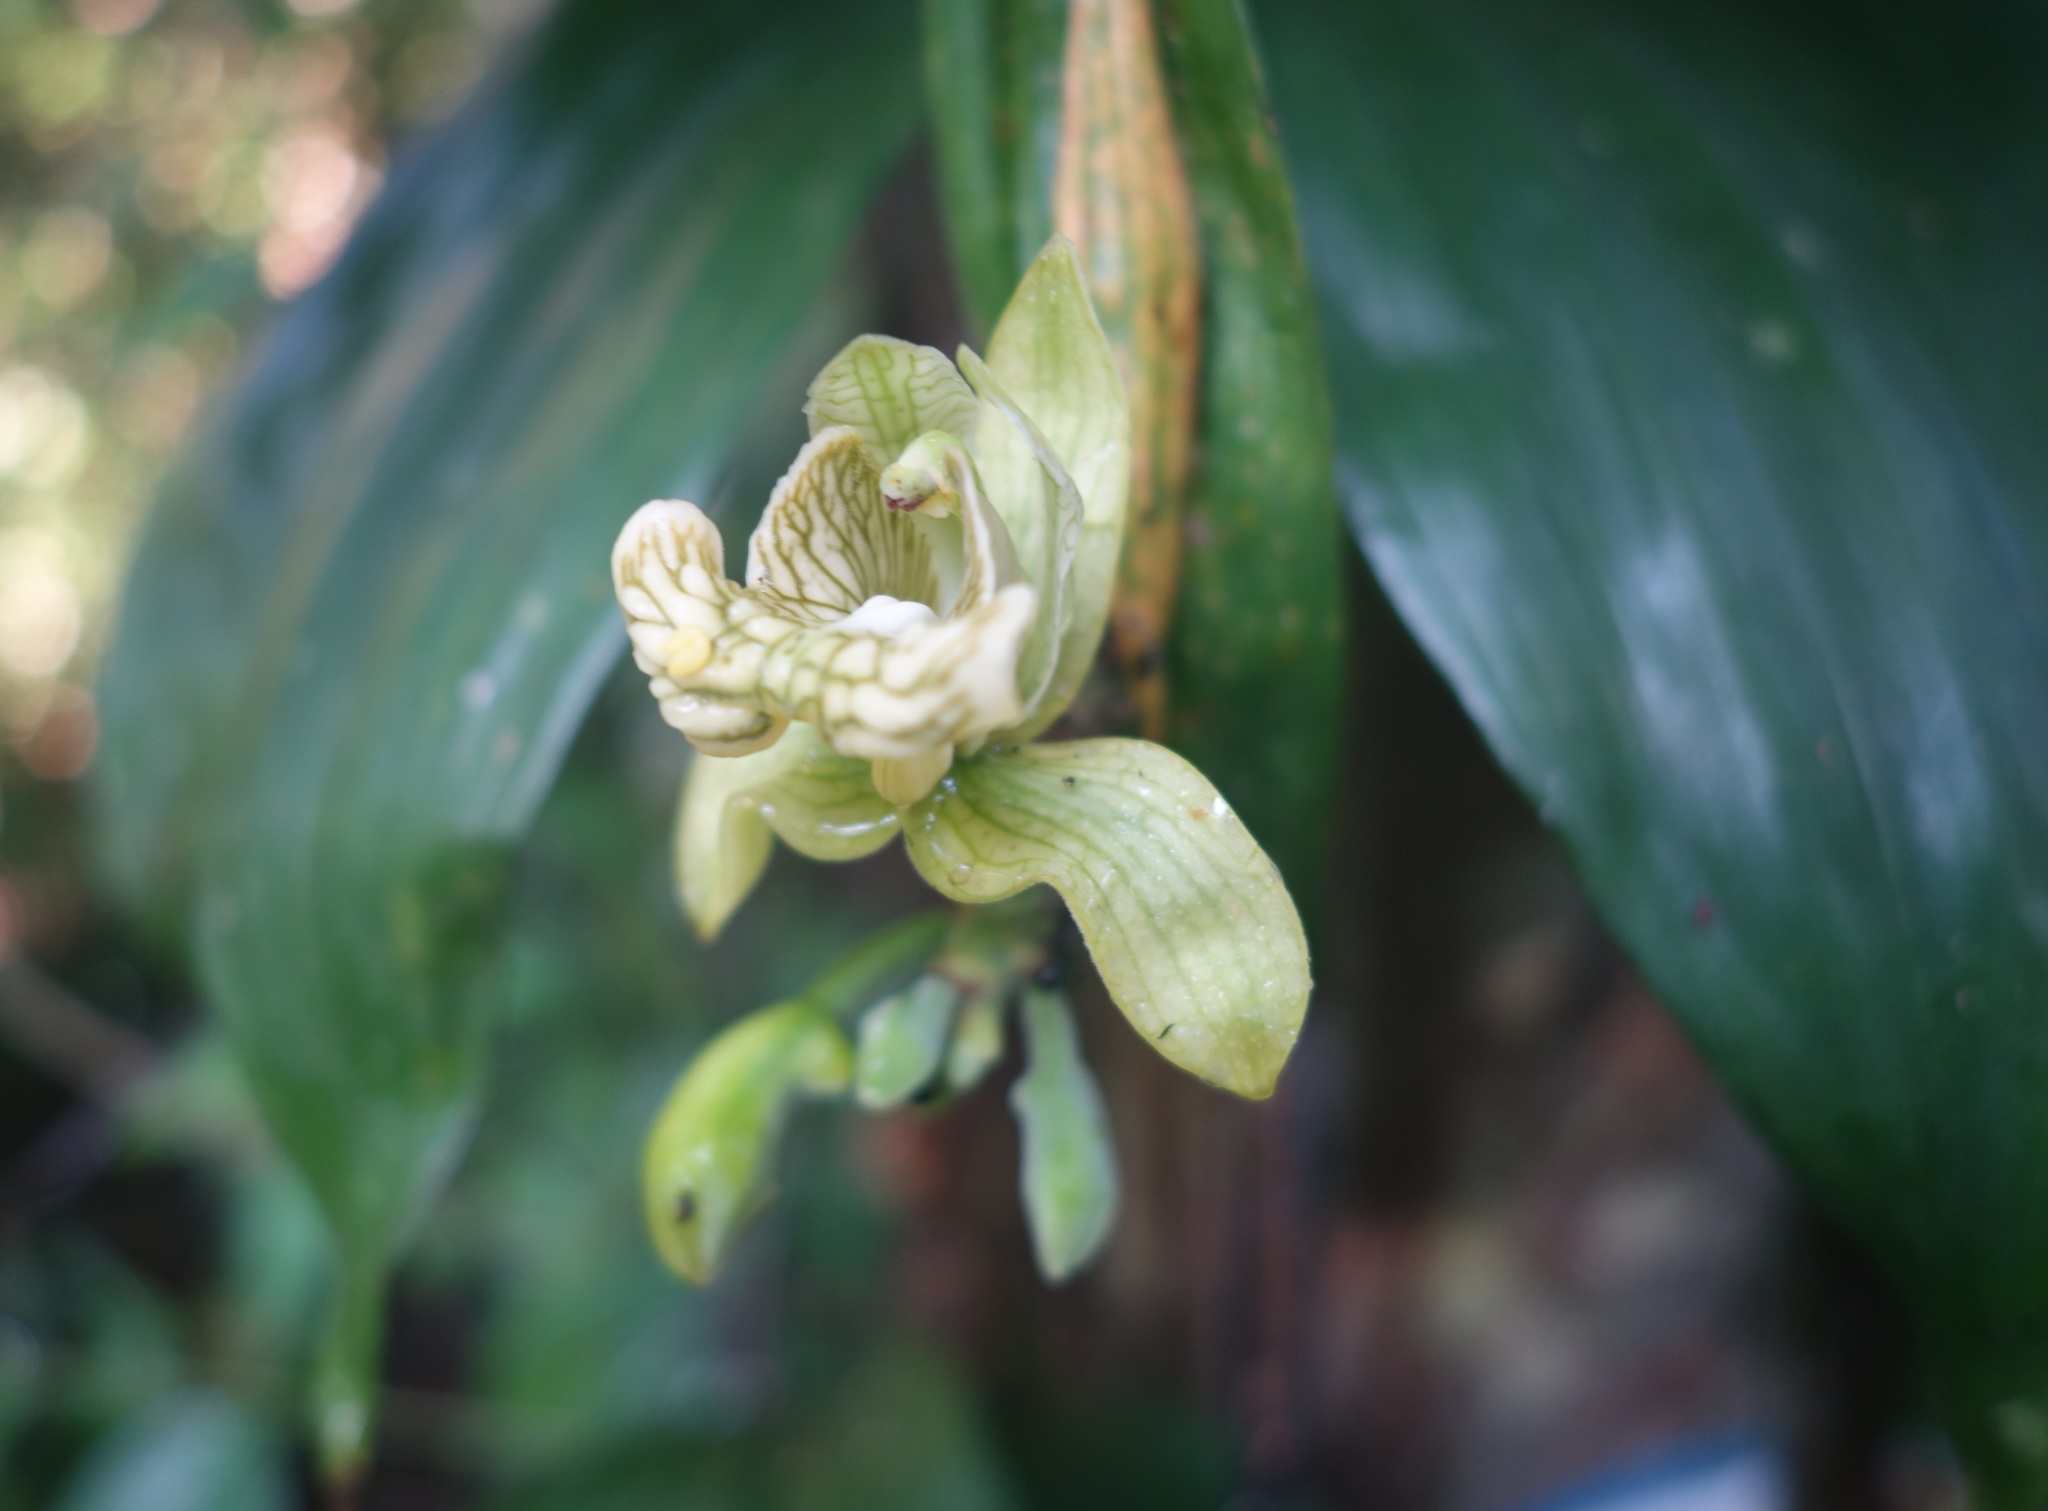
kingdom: Plantae
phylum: Tracheophyta
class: Liliopsida
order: Asparagales
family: Orchidaceae
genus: Claderia
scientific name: Claderia viridiflora
